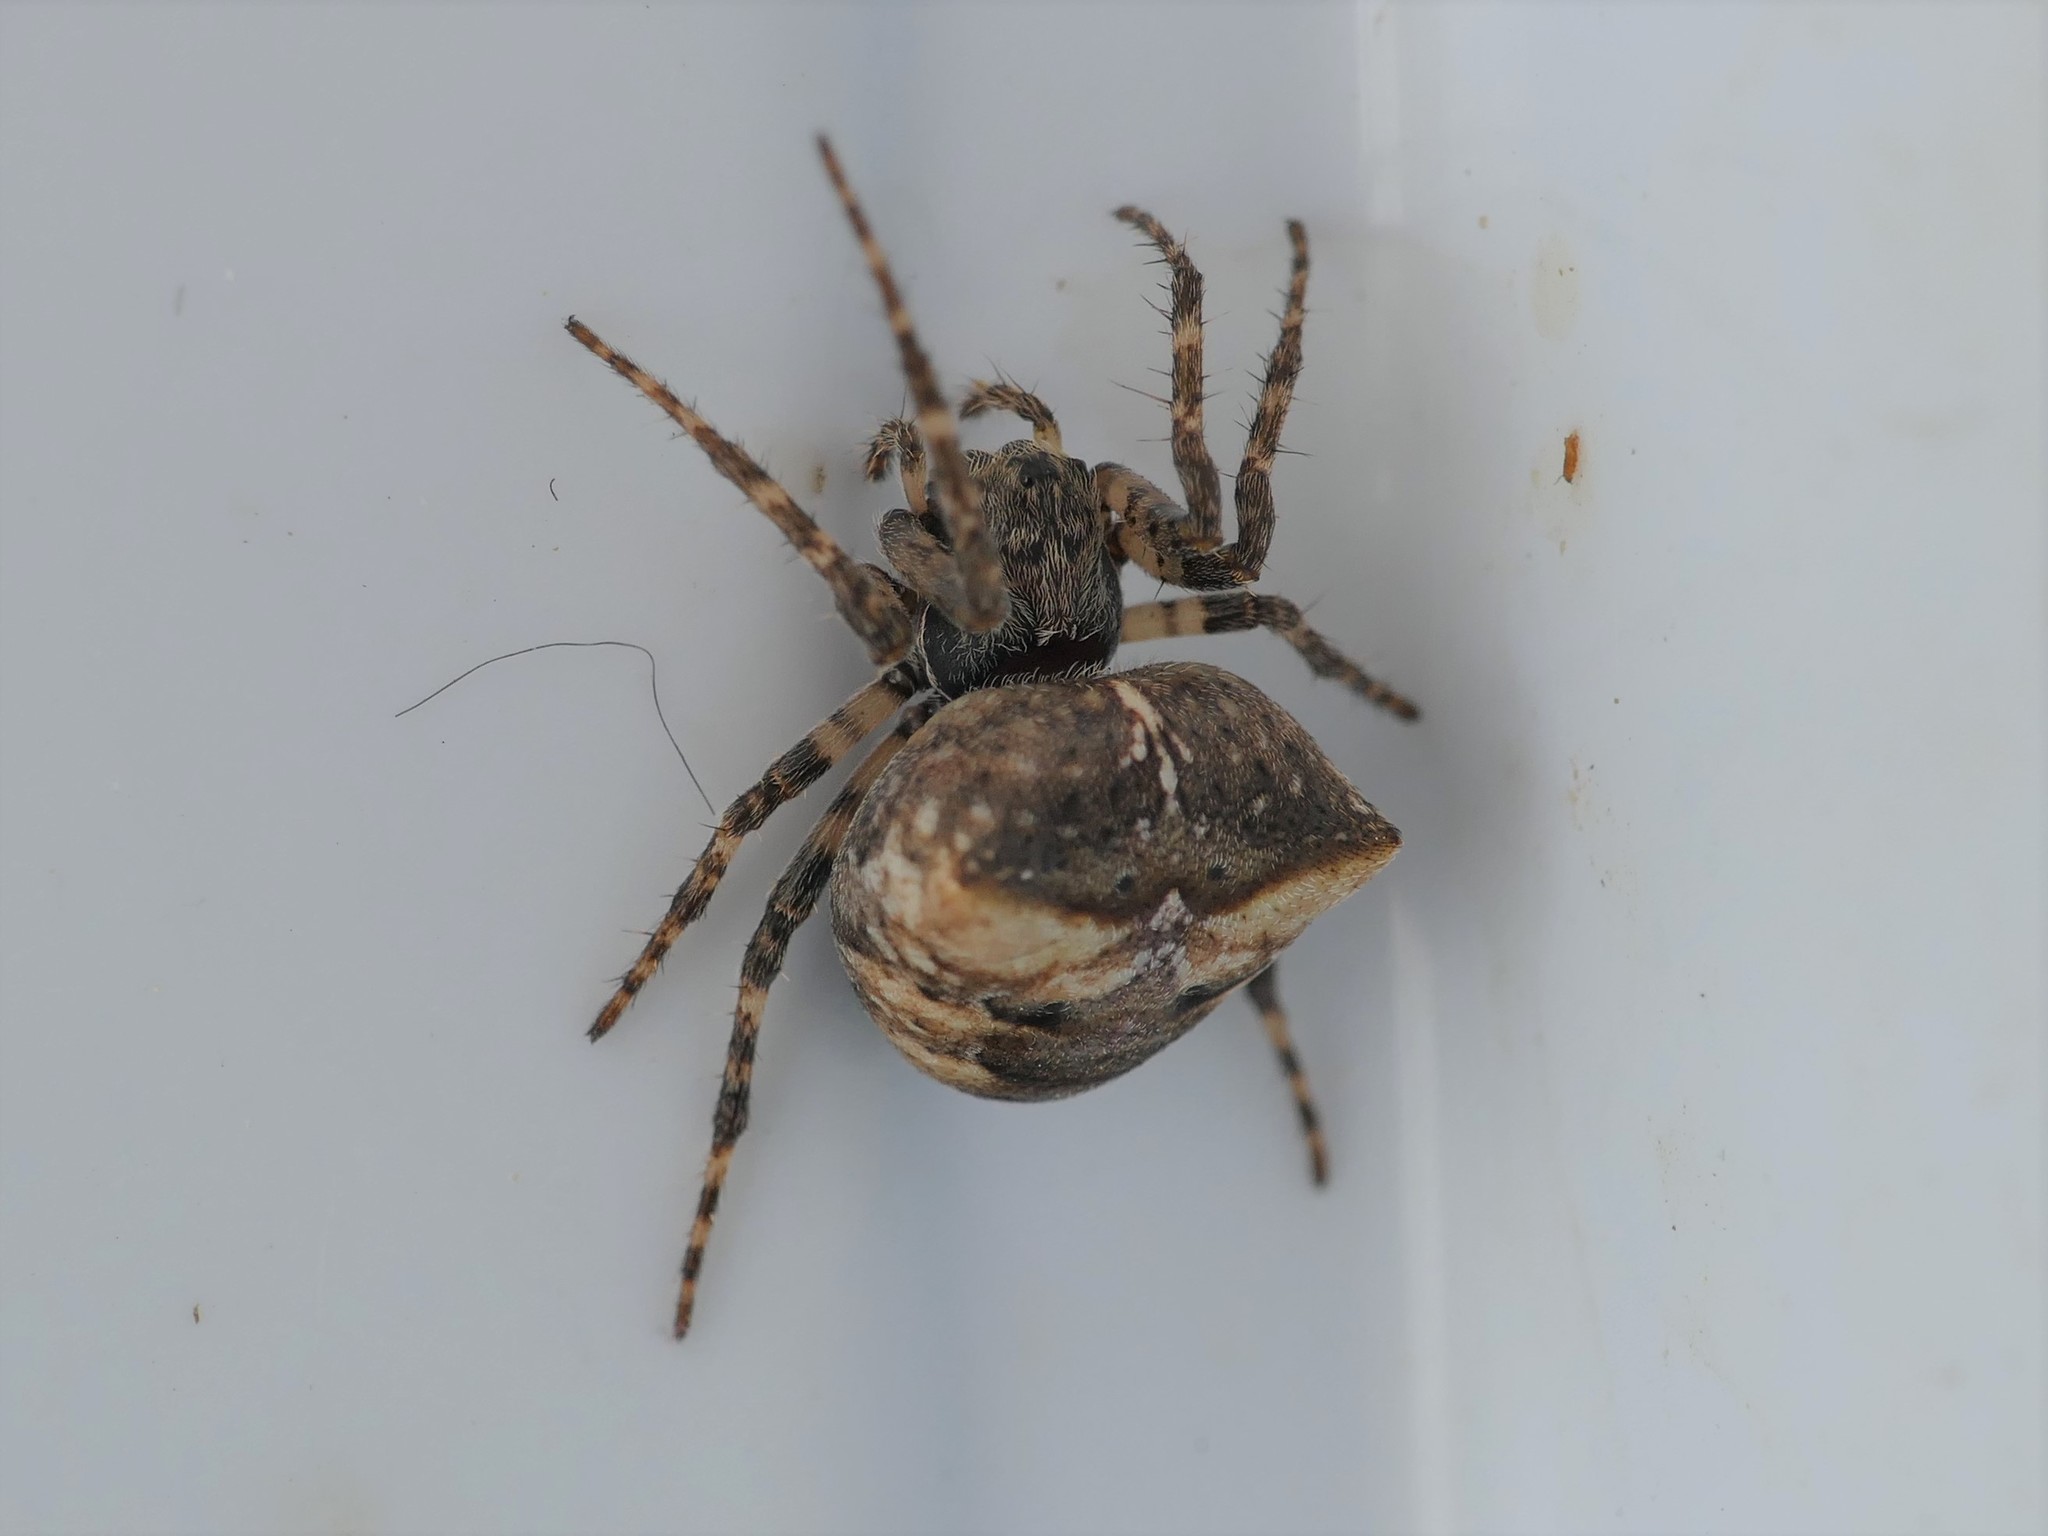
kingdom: Animalia
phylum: Arthropoda
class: Arachnida
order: Araneae
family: Araneidae
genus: Gibbaranea
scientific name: Gibbaranea bituberculata
